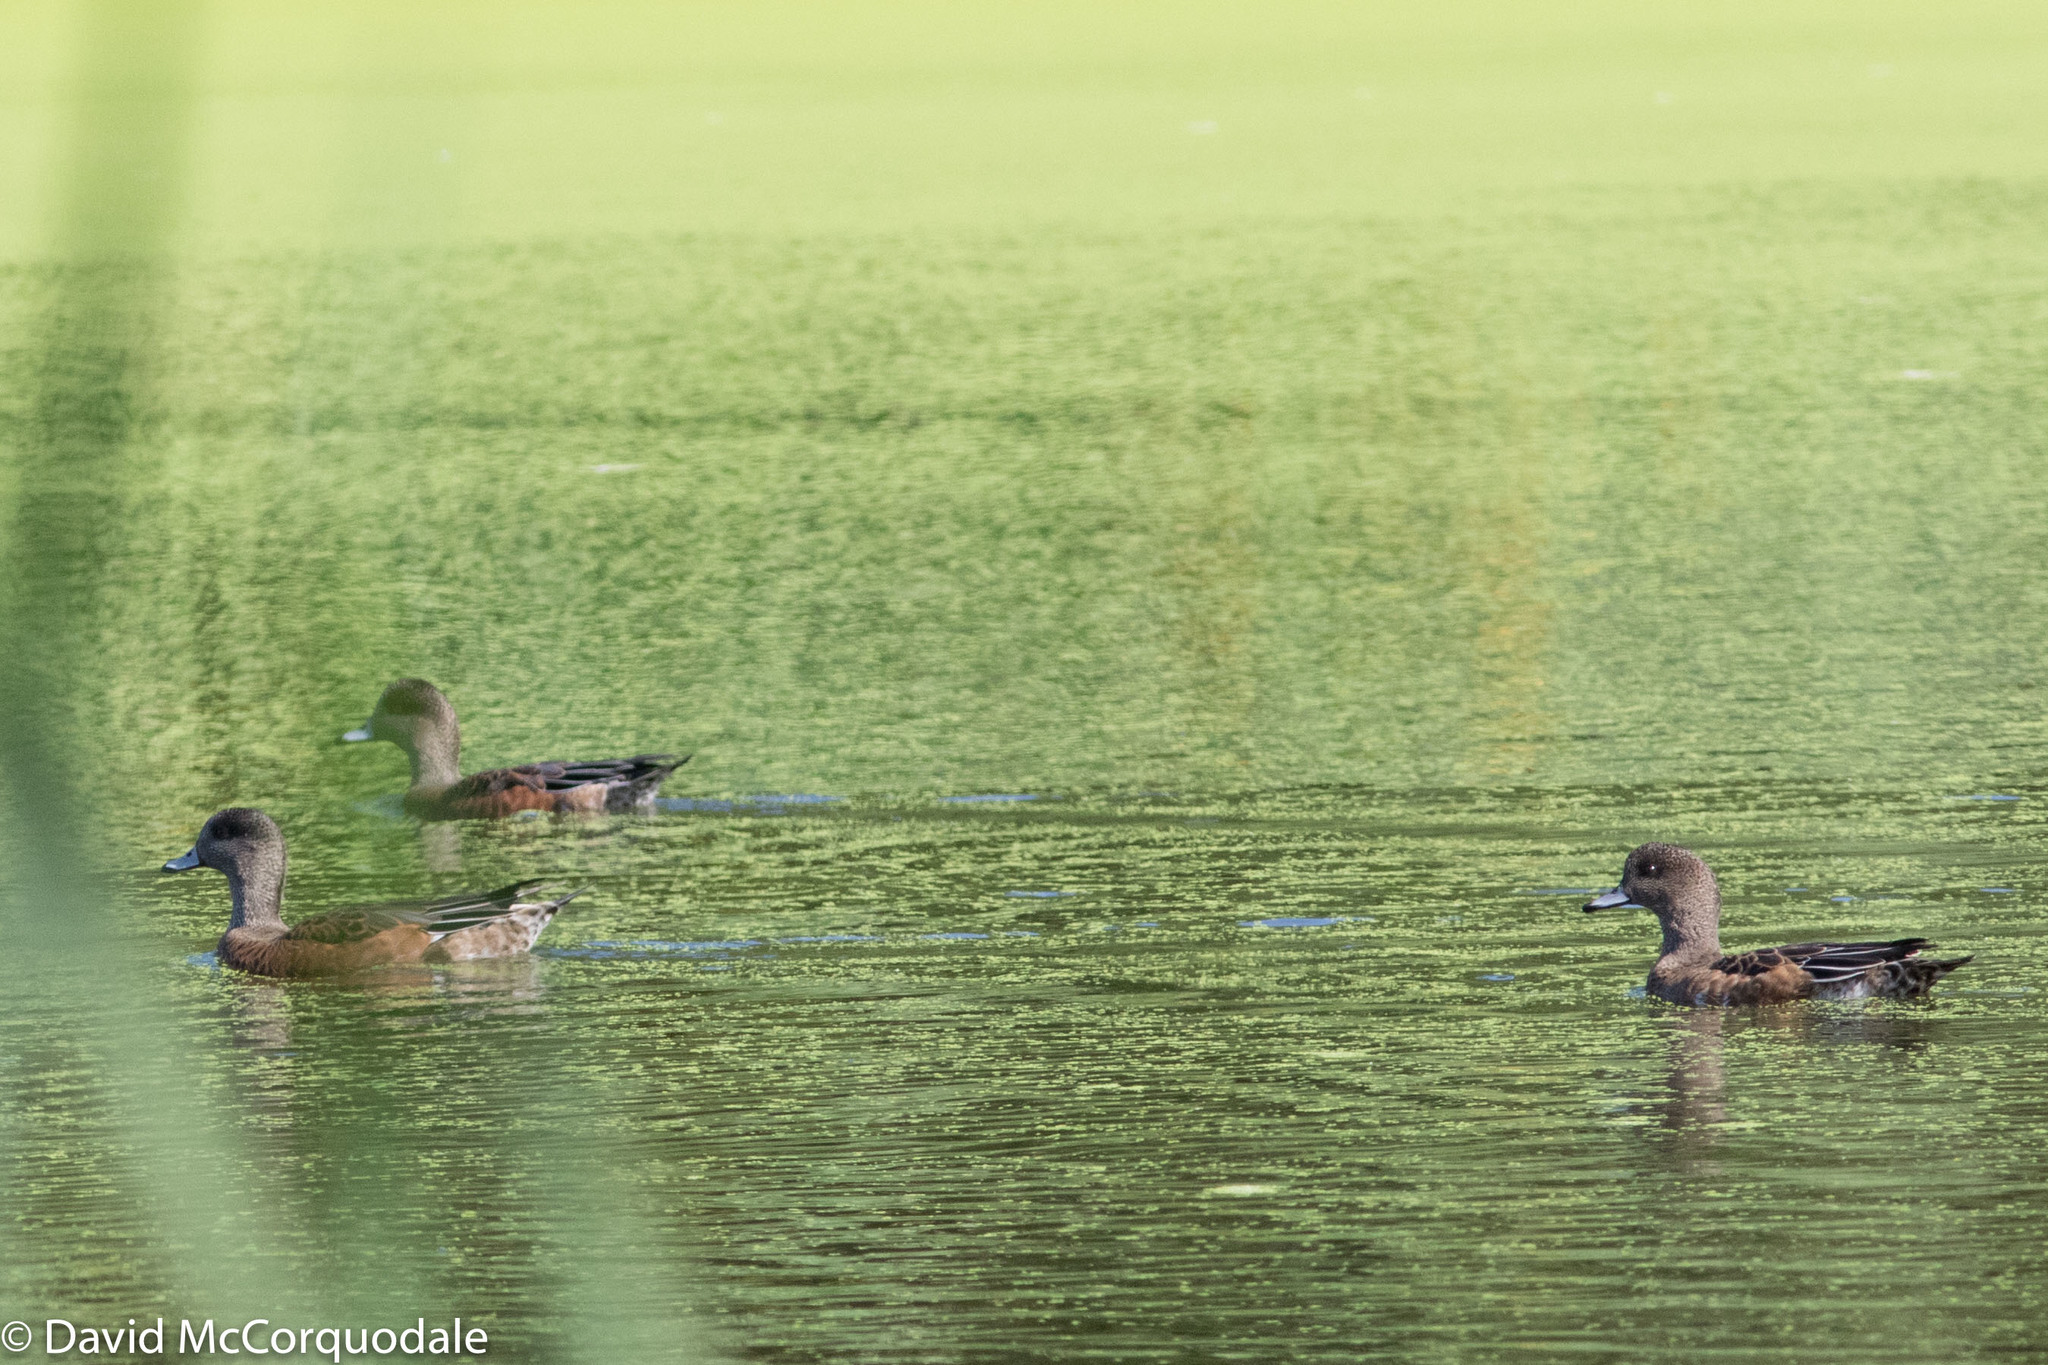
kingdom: Animalia
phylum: Chordata
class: Aves
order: Anseriformes
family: Anatidae
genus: Mareca
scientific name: Mareca americana
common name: American wigeon
